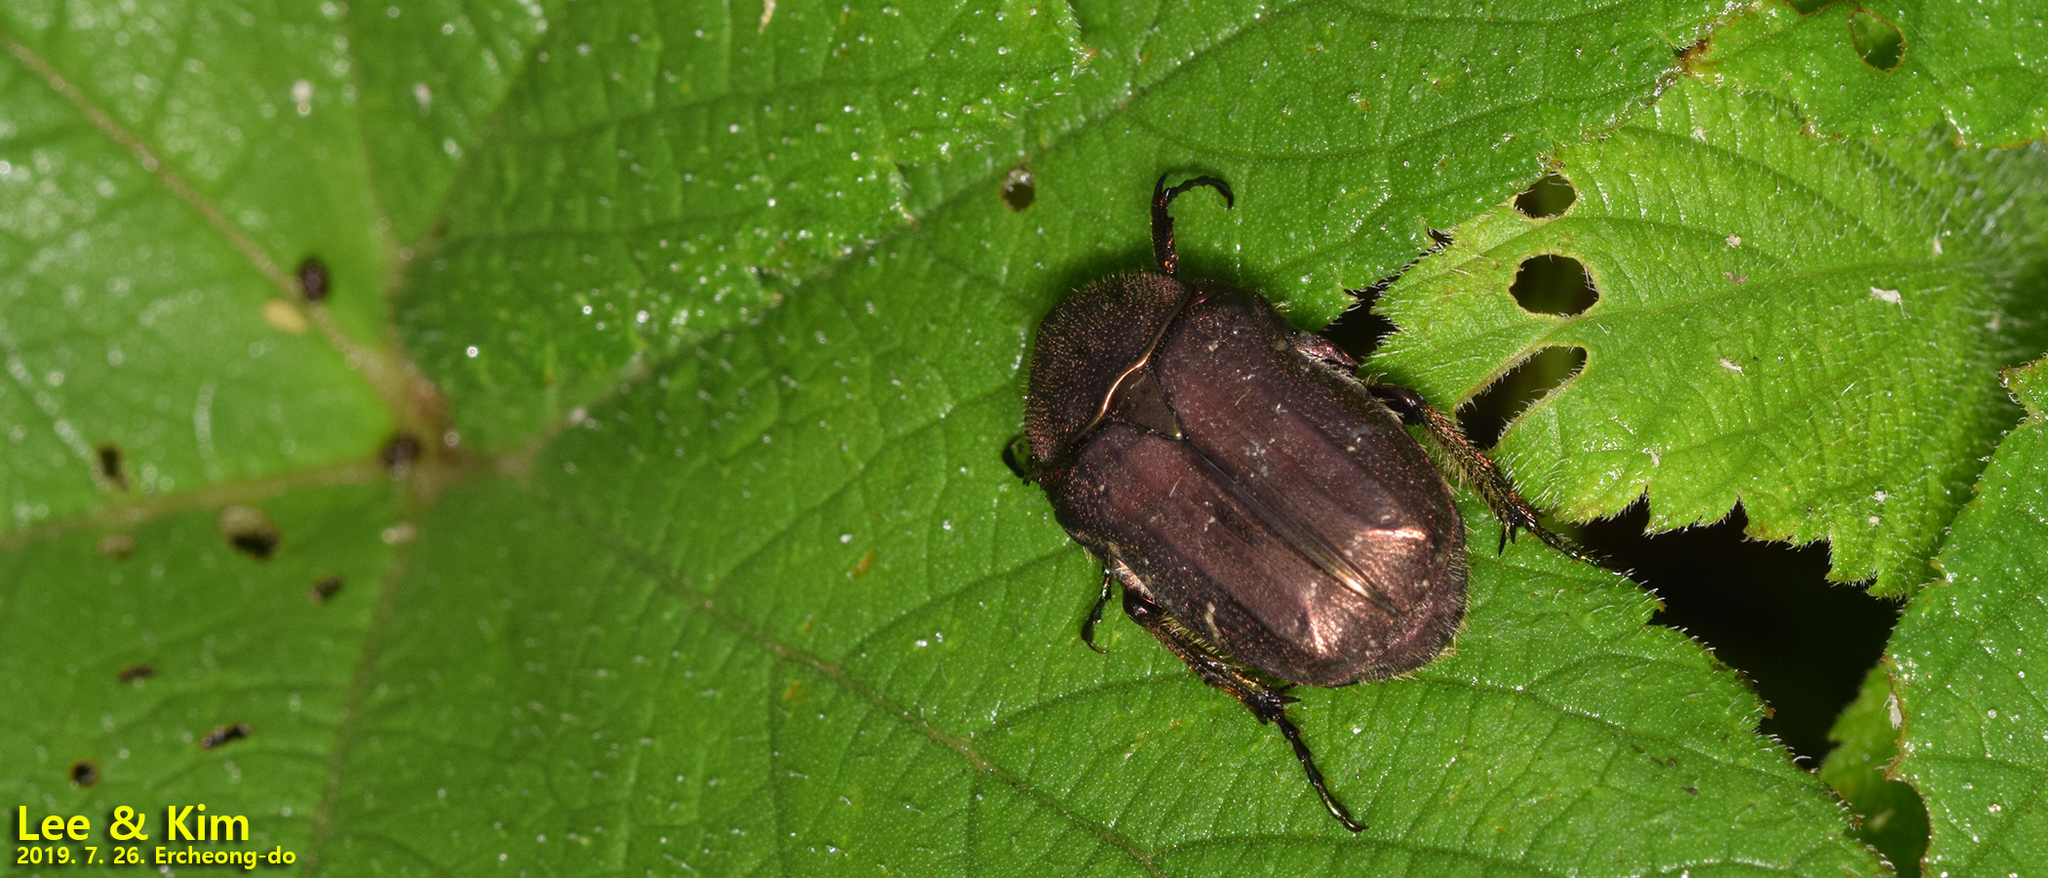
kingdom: Animalia
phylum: Arthropoda
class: Insecta
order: Coleoptera
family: Scarabaeidae
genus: Cetonia
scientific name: Cetonia pilifera
